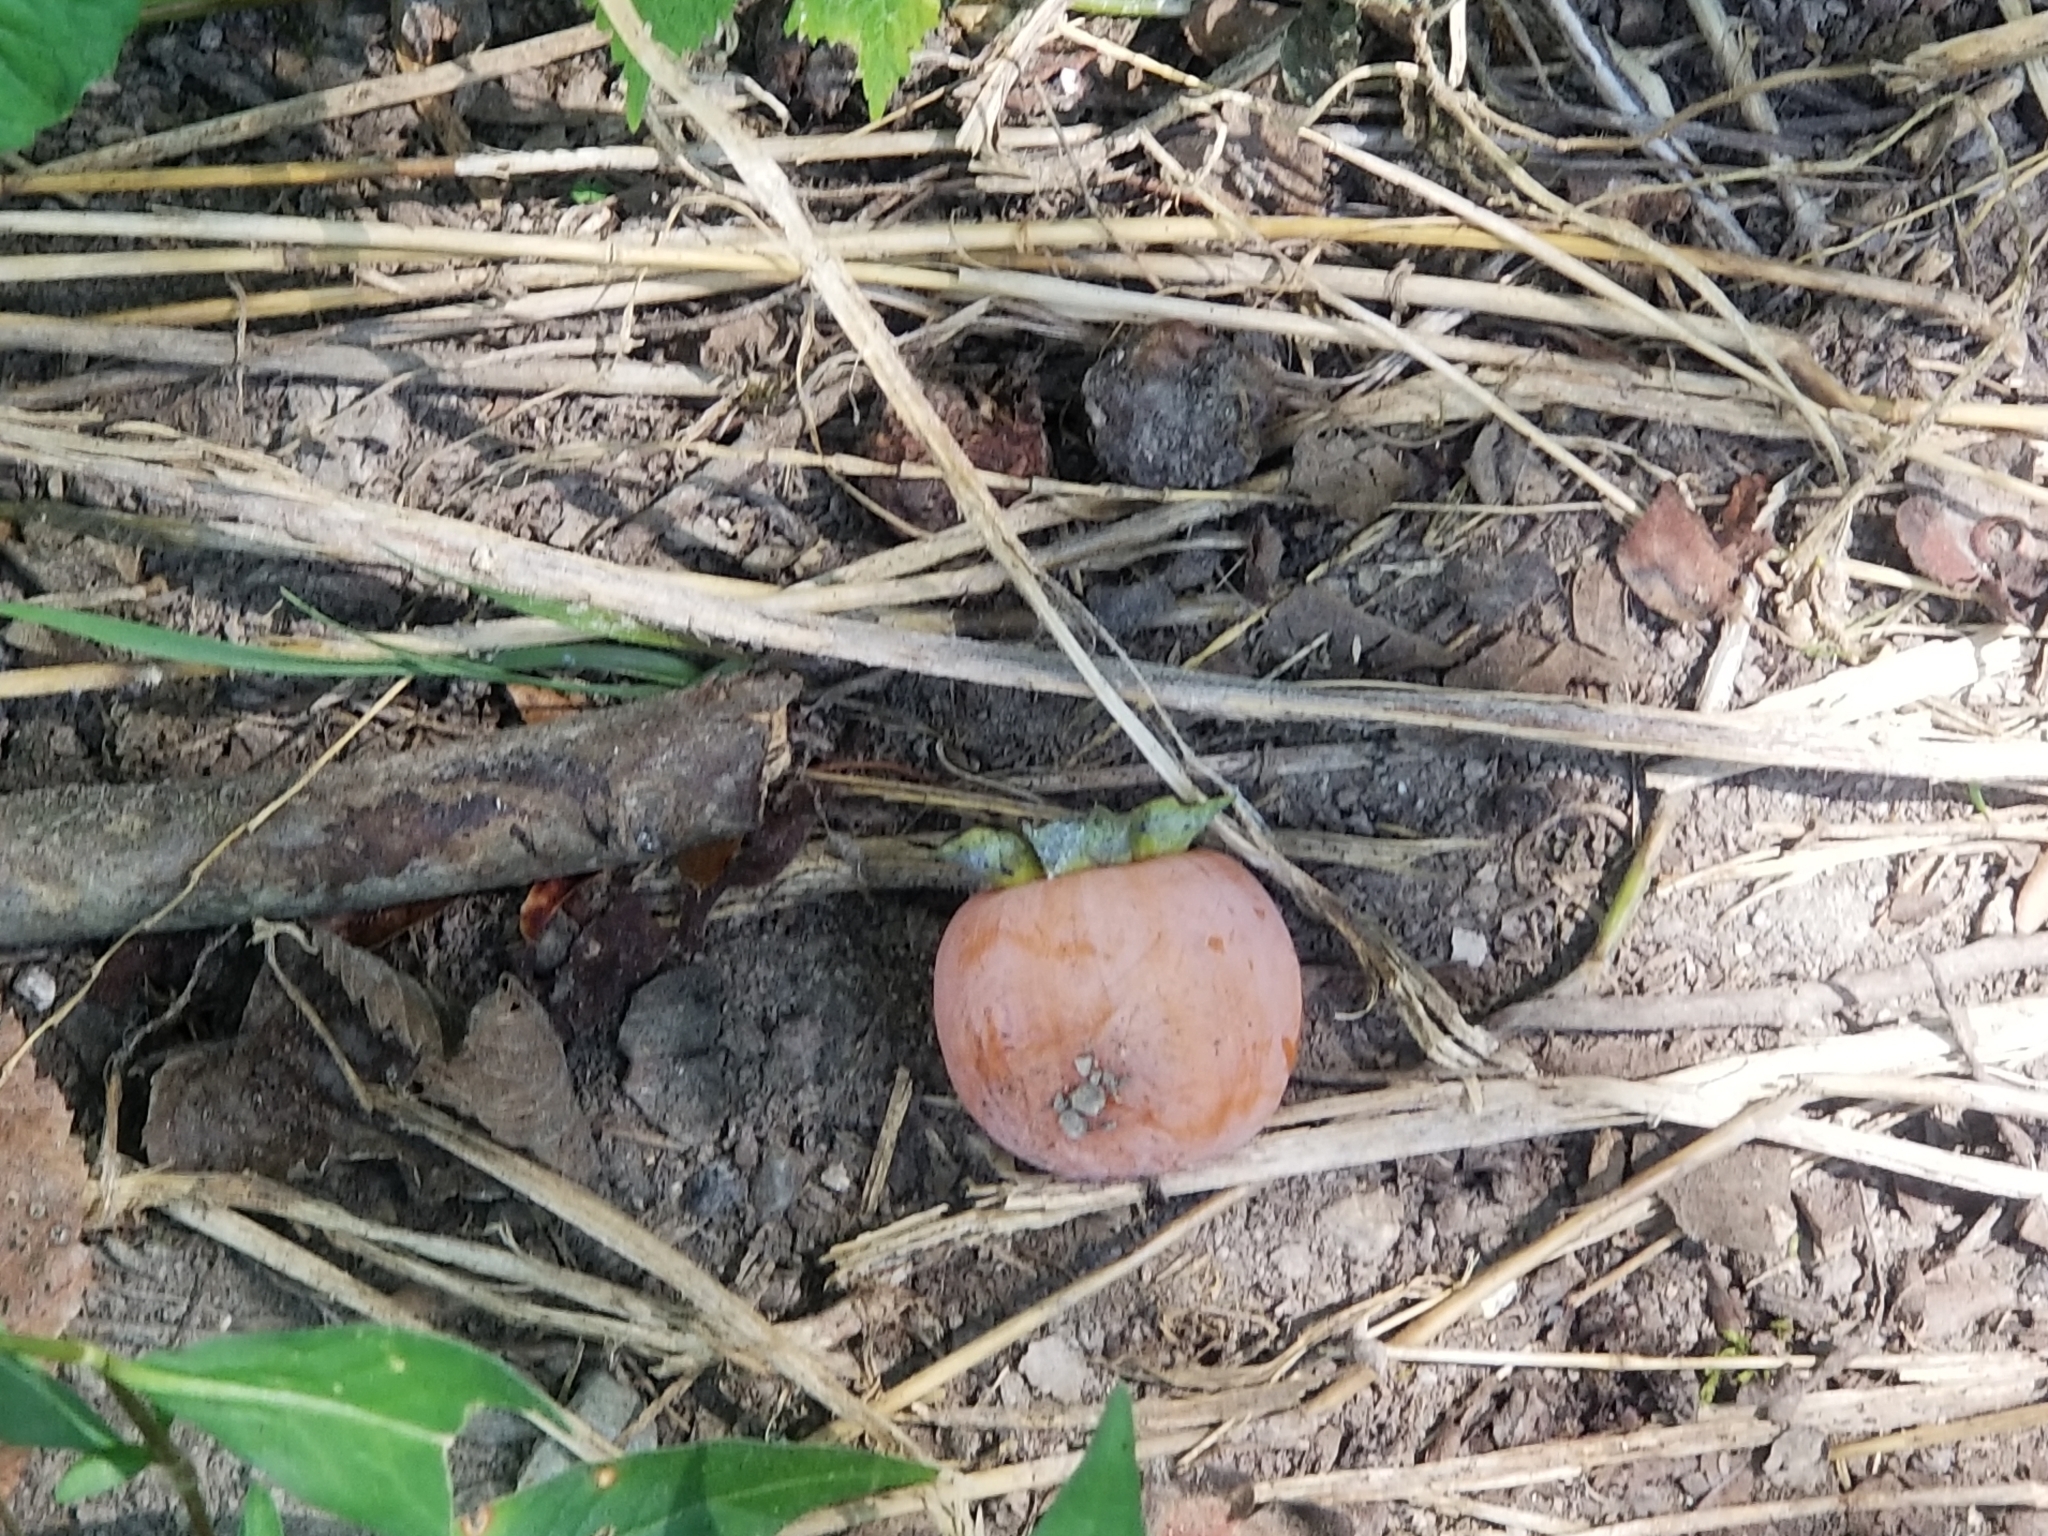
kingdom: Plantae
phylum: Tracheophyta
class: Magnoliopsida
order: Ericales
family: Ebenaceae
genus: Diospyros
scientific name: Diospyros virginiana
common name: Persimmon
